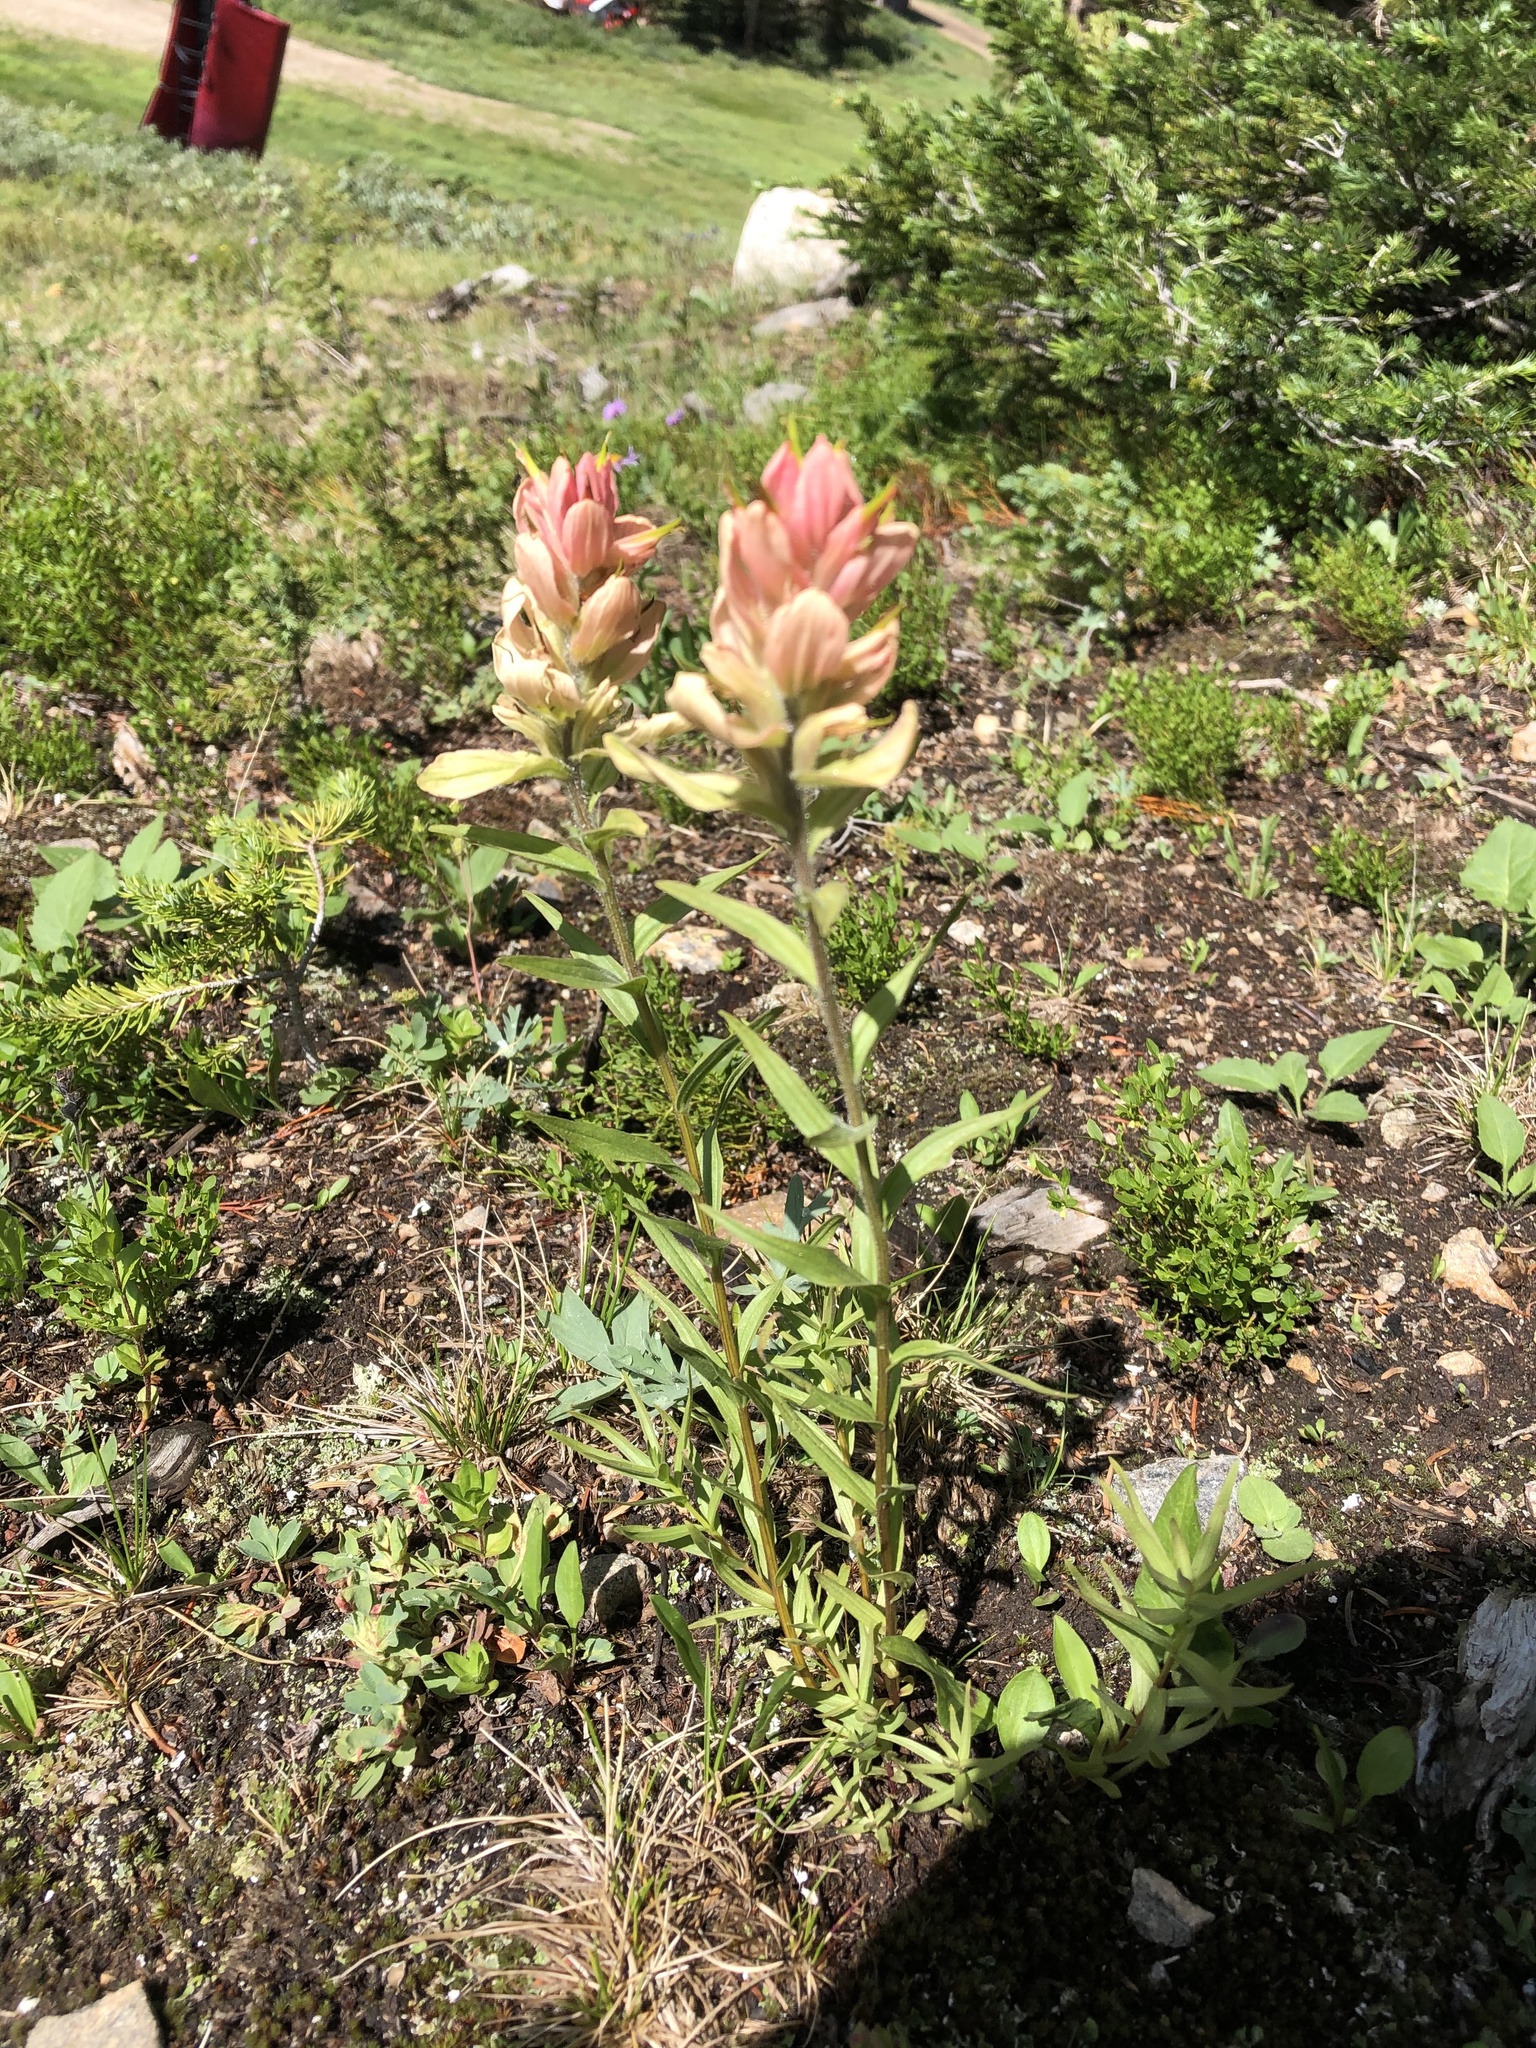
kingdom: Plantae
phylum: Tracheophyta
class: Magnoliopsida
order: Lamiales
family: Orobanchaceae
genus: Castilleja
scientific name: Castilleja rhexifolia
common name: Rocky mountain paintbrush
